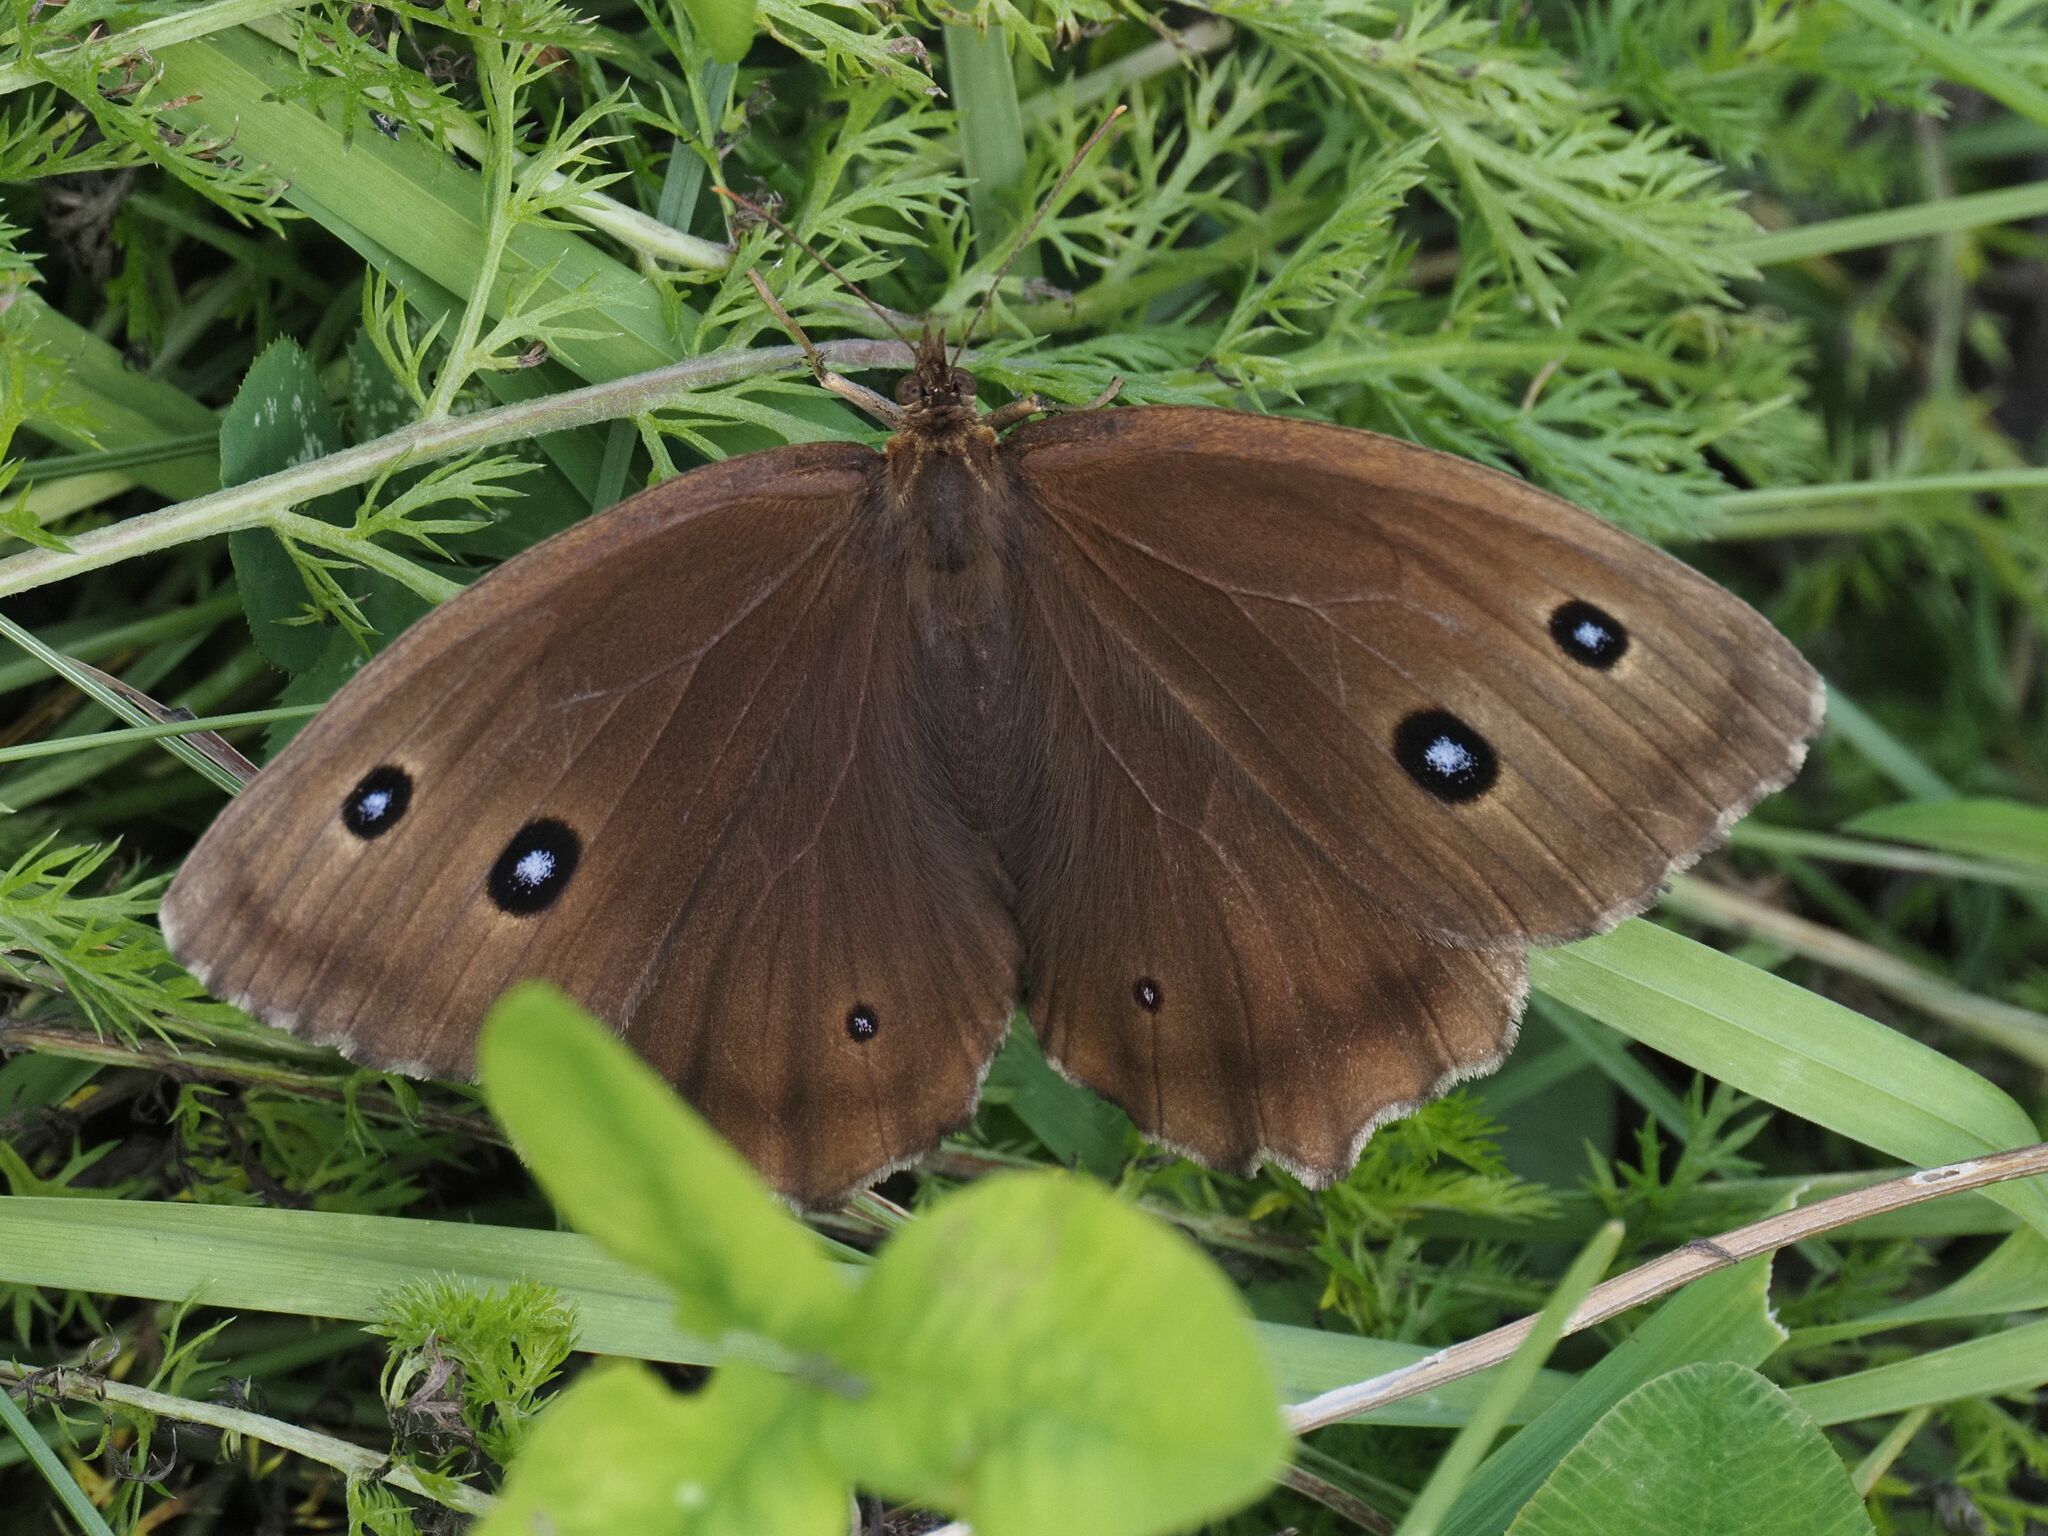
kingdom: Animalia
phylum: Arthropoda
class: Insecta
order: Lepidoptera
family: Nymphalidae
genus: Minois
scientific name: Minois dryas
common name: Dryad
